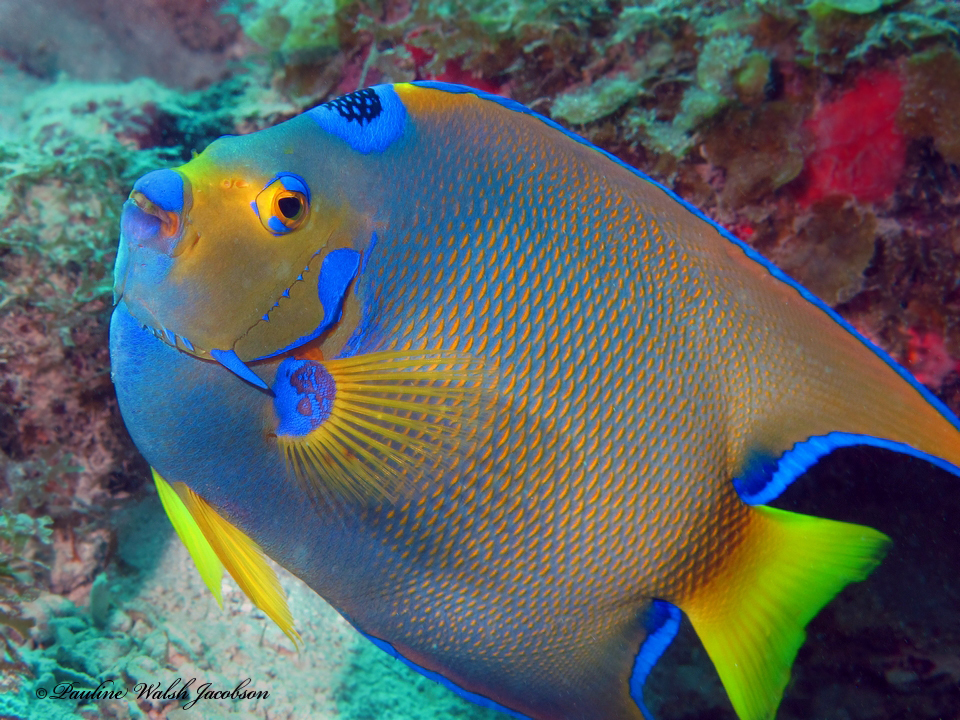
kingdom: Animalia
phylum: Chordata
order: Perciformes
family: Pomacanthidae
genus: Holacanthus
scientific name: Holacanthus ciliaris
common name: Queen angelfish
